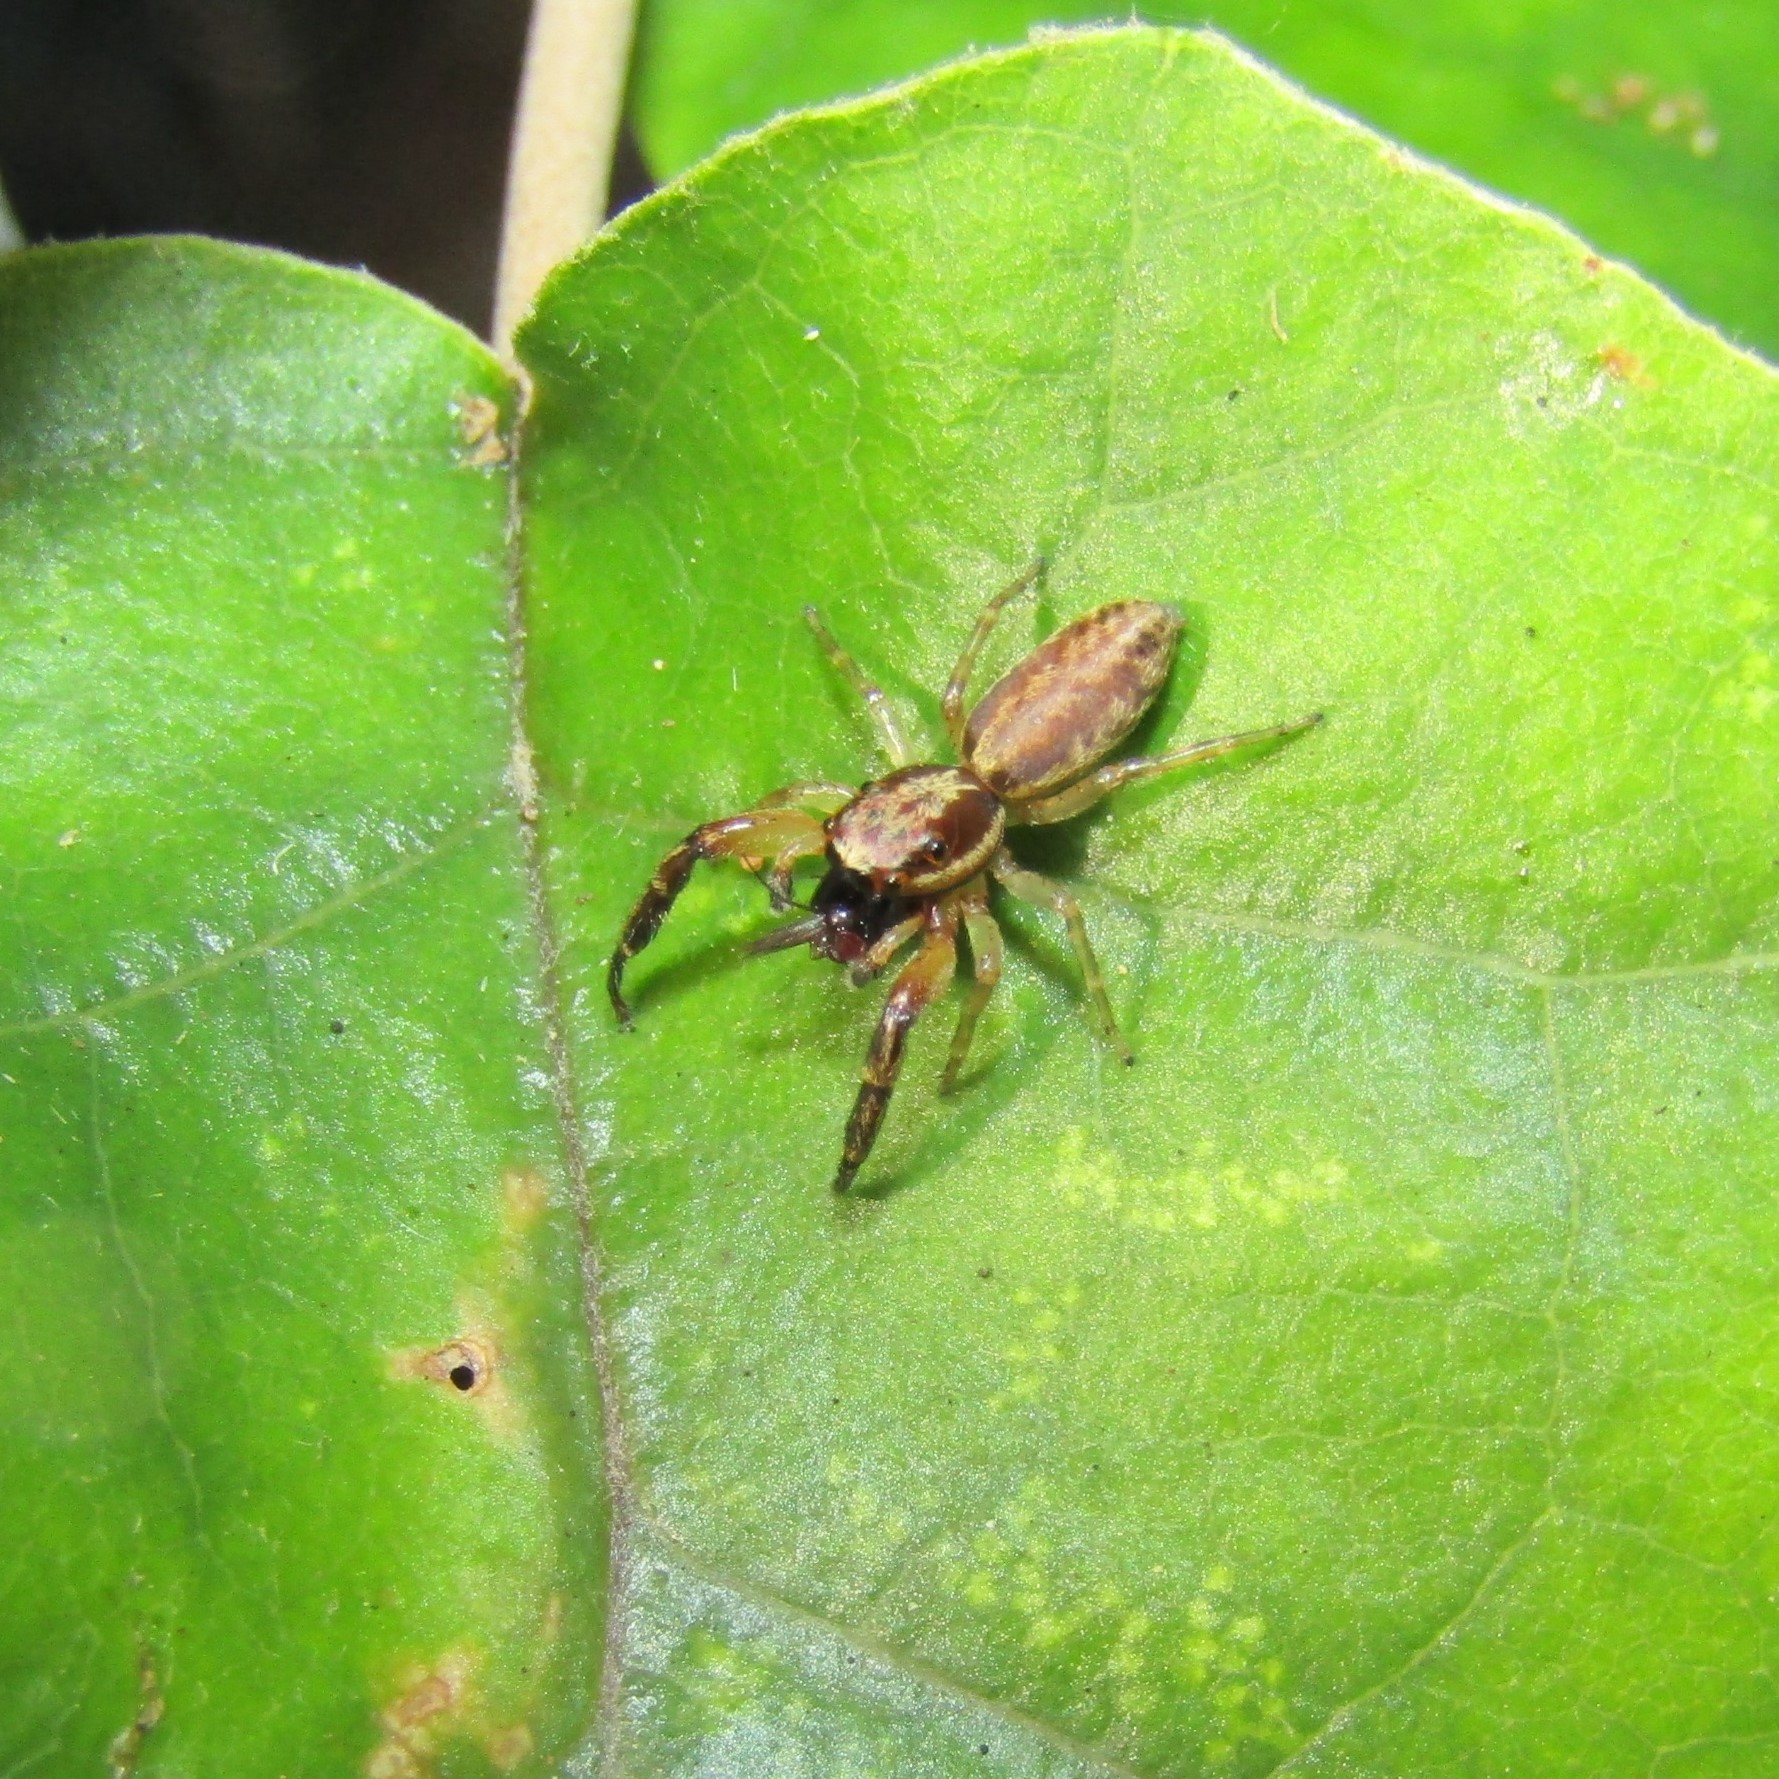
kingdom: Animalia
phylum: Arthropoda
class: Arachnida
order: Araneae
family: Salticidae
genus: Trite
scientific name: Trite mustilina
